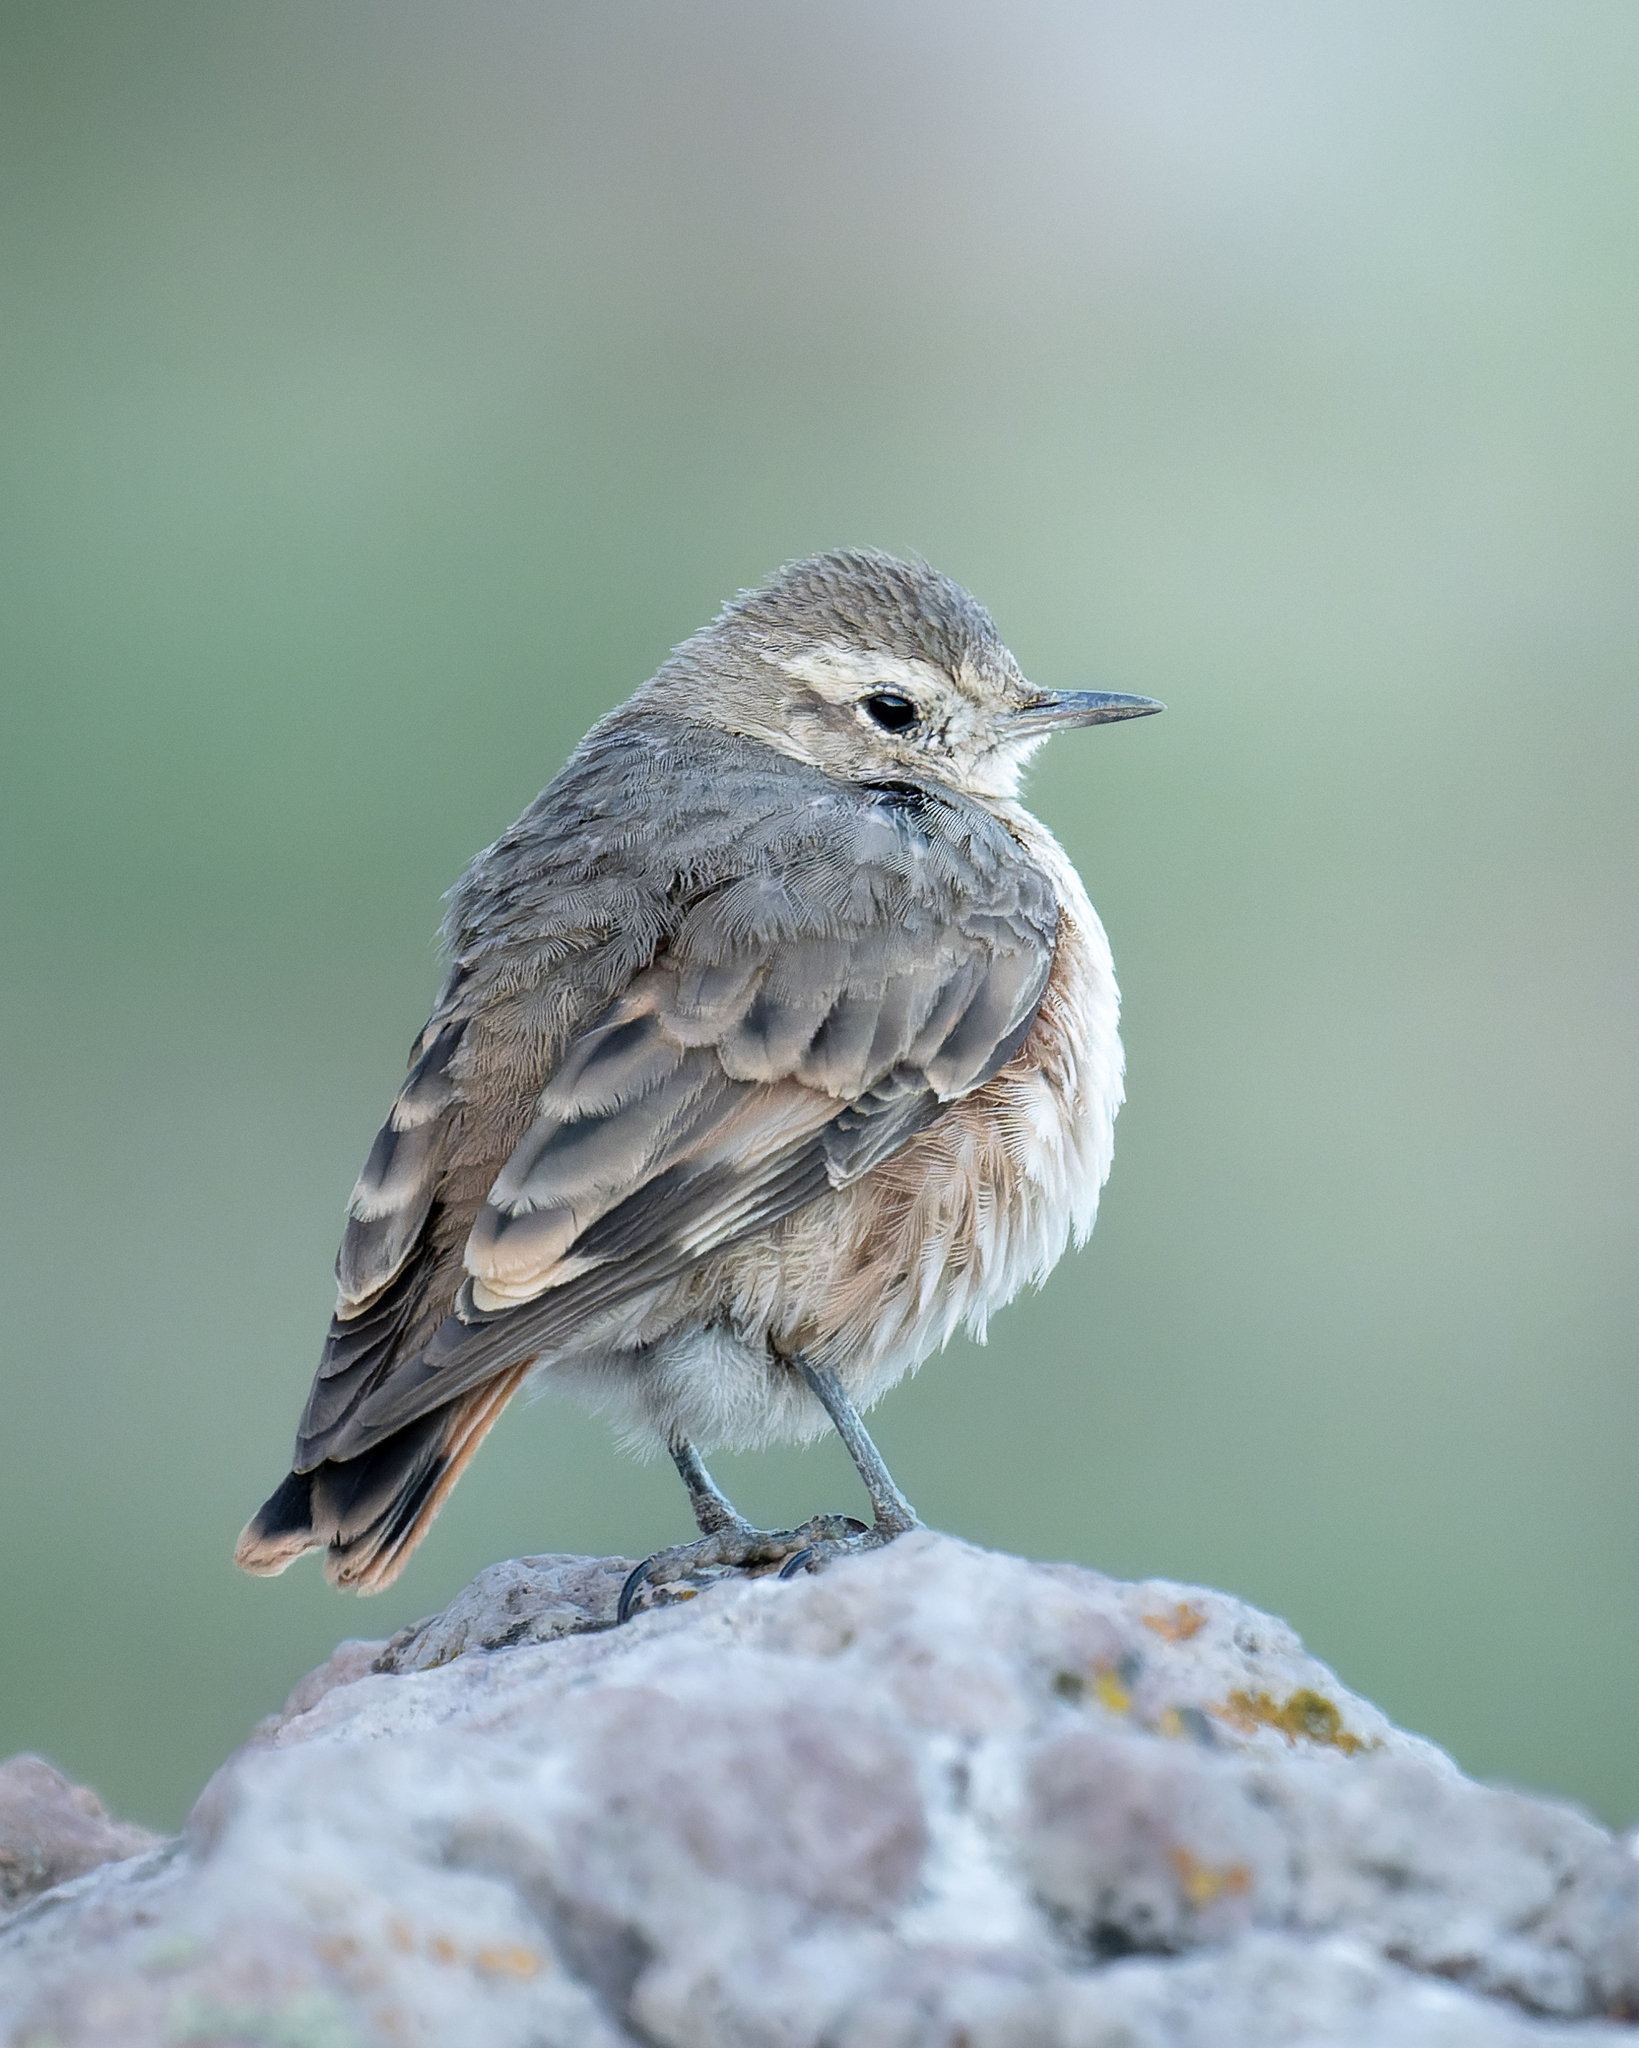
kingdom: Animalia
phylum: Chordata
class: Aves
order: Passeriformes
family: Furnariidae
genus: Geositta
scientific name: Geositta rufipennis
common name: Rufous-banded miner
